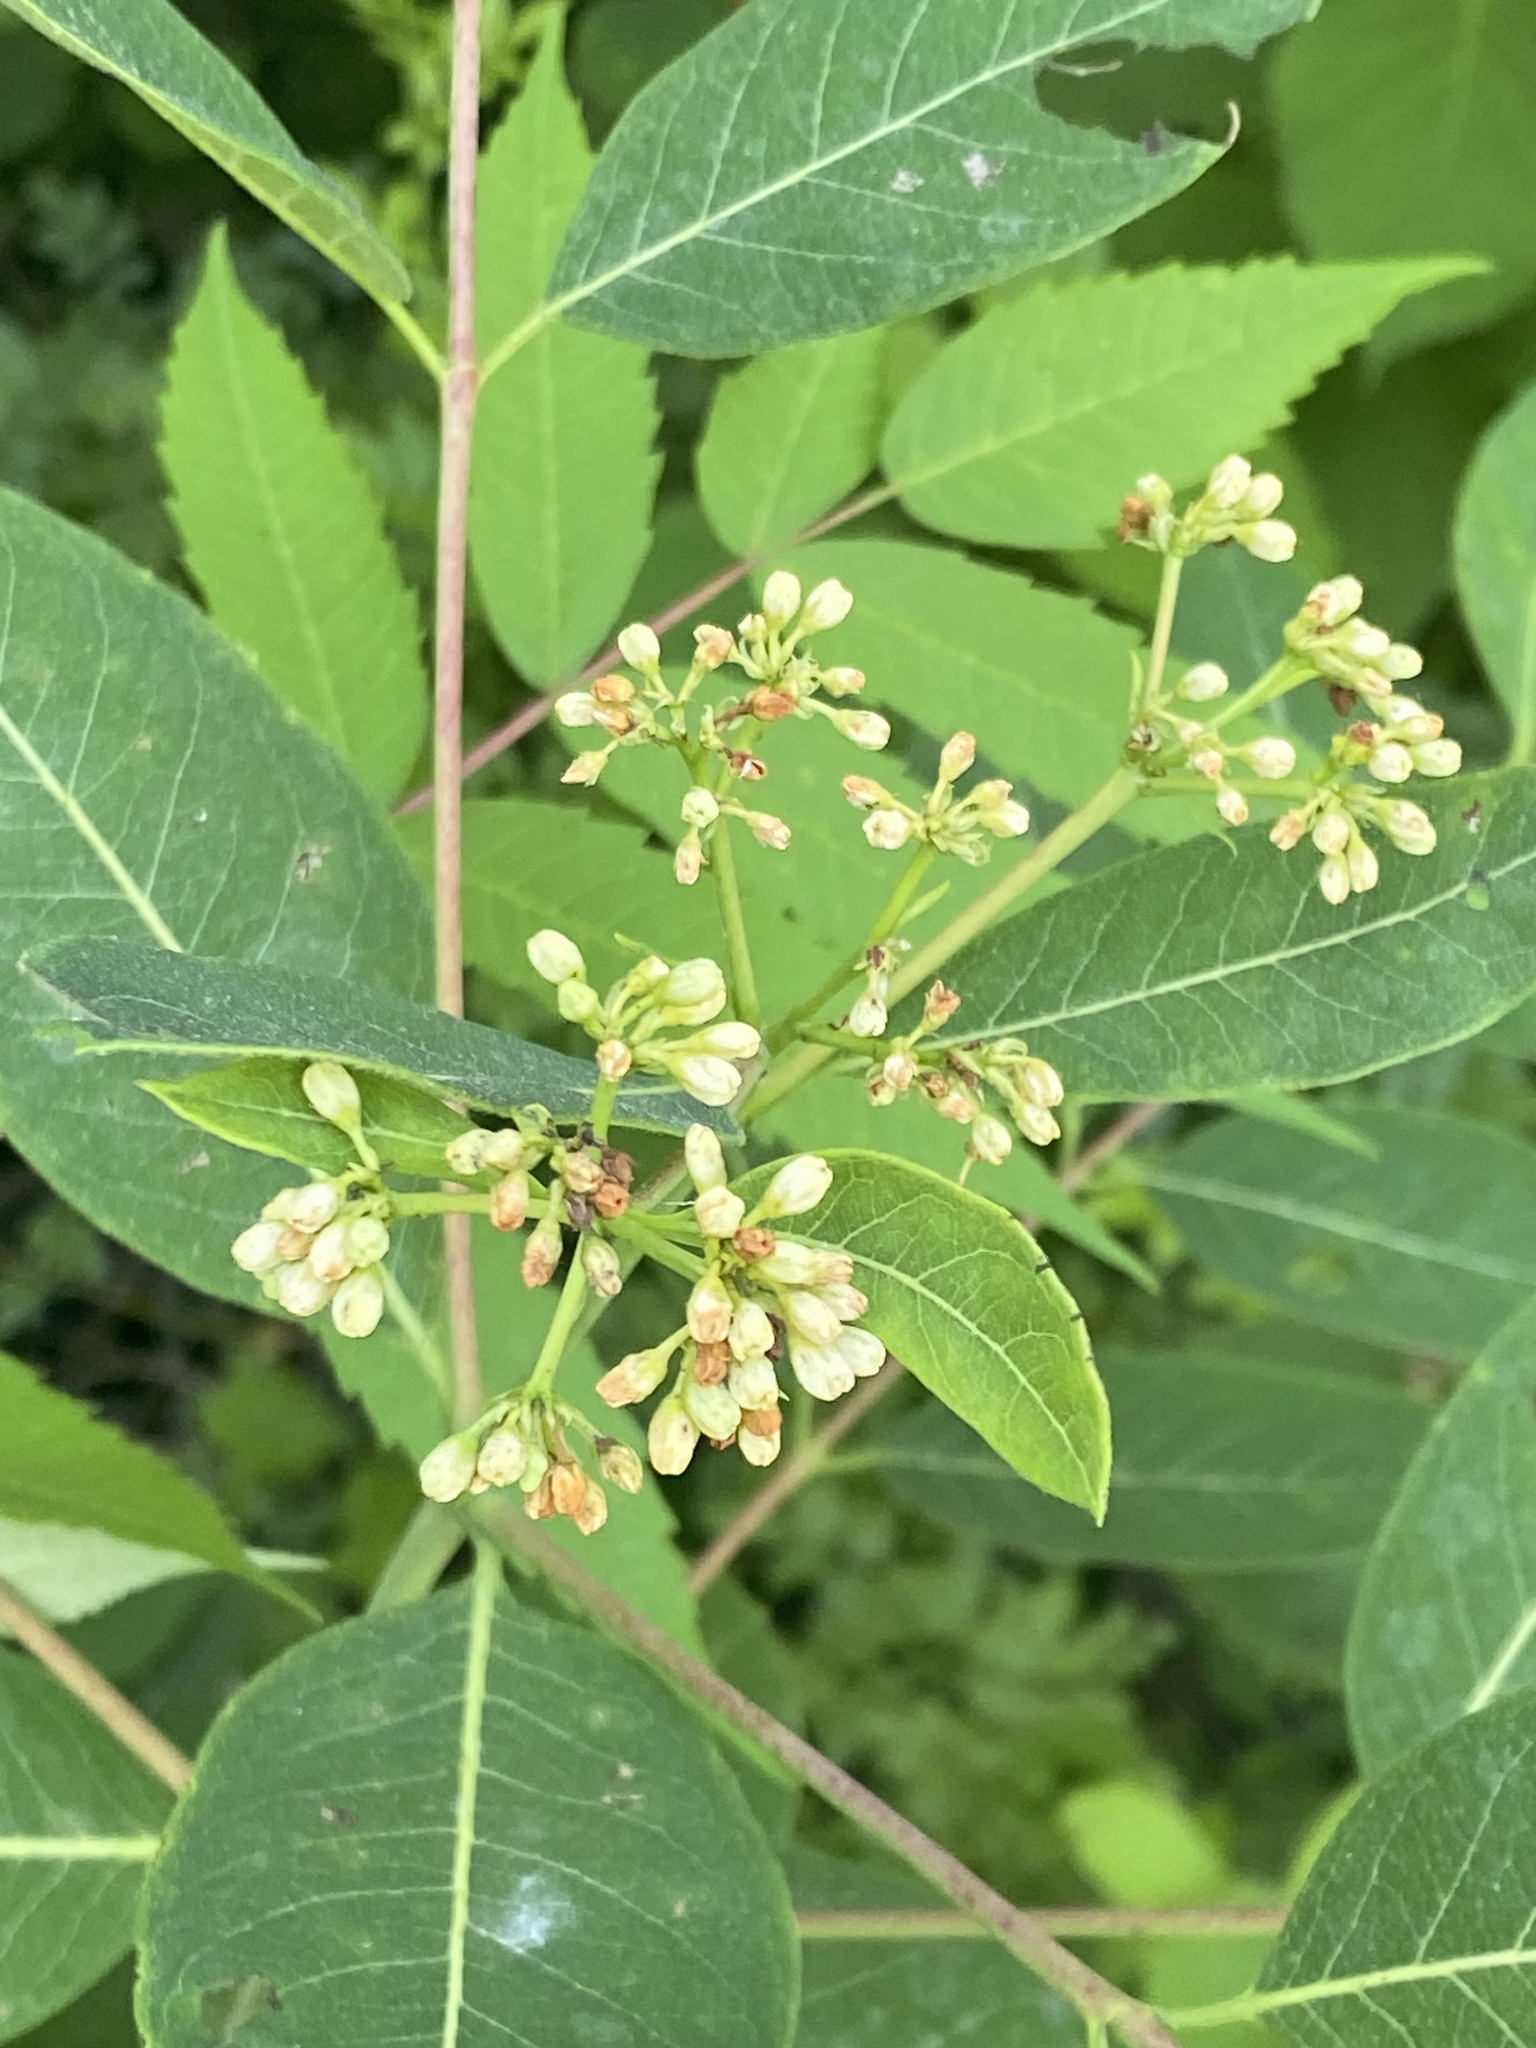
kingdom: Plantae
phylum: Tracheophyta
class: Magnoliopsida
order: Gentianales
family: Apocynaceae
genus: Apocynum
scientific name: Apocynum cannabinum
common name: Hemp dogbane
